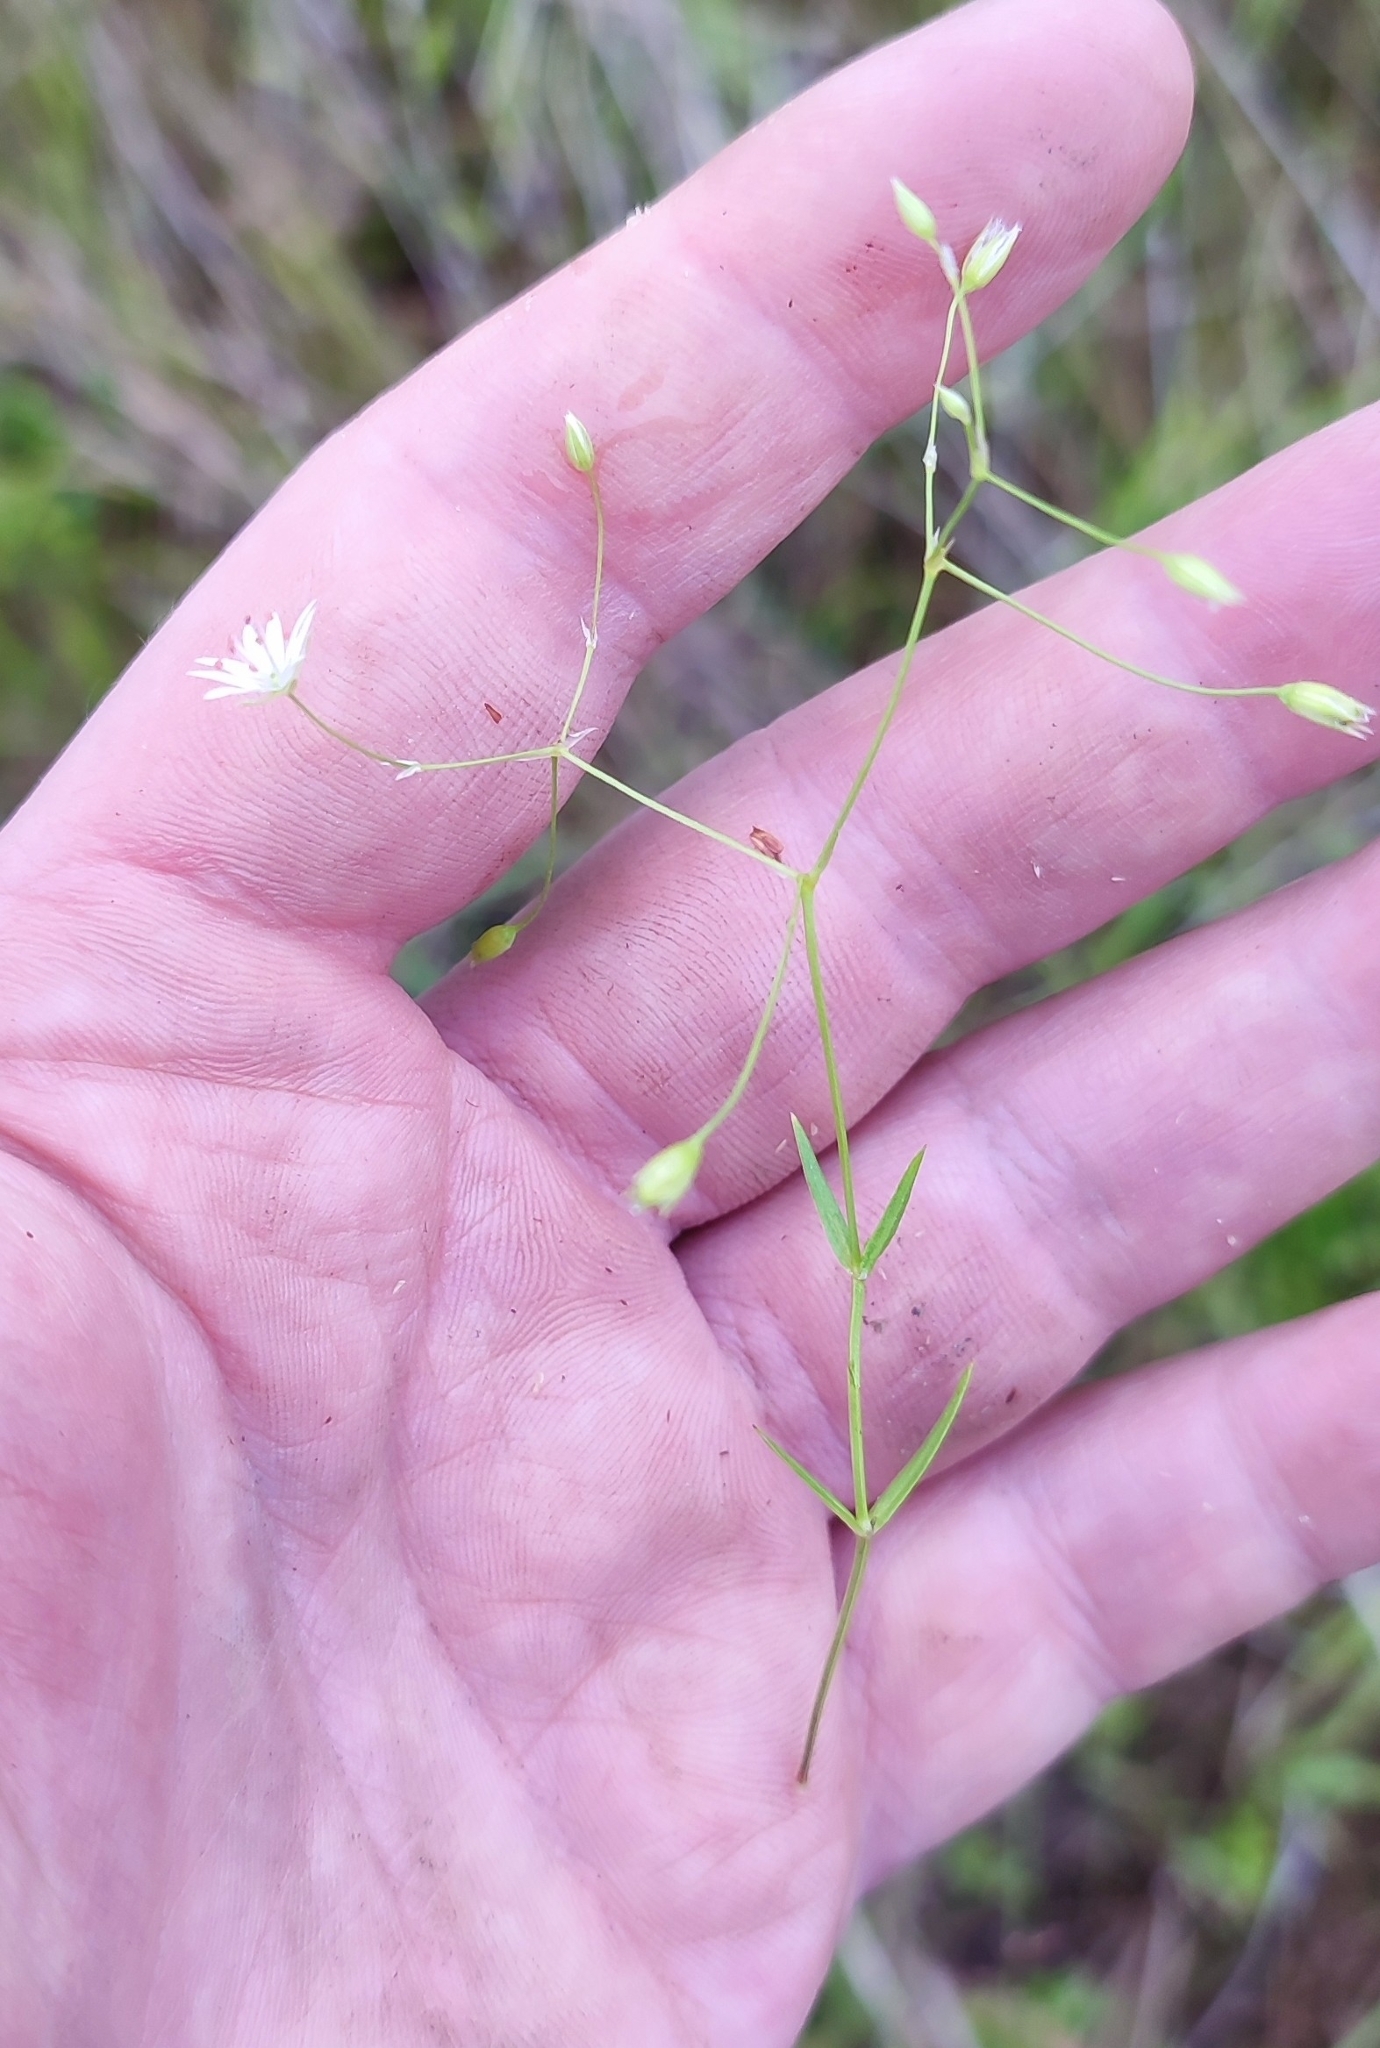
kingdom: Plantae
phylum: Tracheophyta
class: Magnoliopsida
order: Caryophyllales
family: Caryophyllaceae
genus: Stellaria
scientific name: Stellaria graminea
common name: Grass-like starwort
